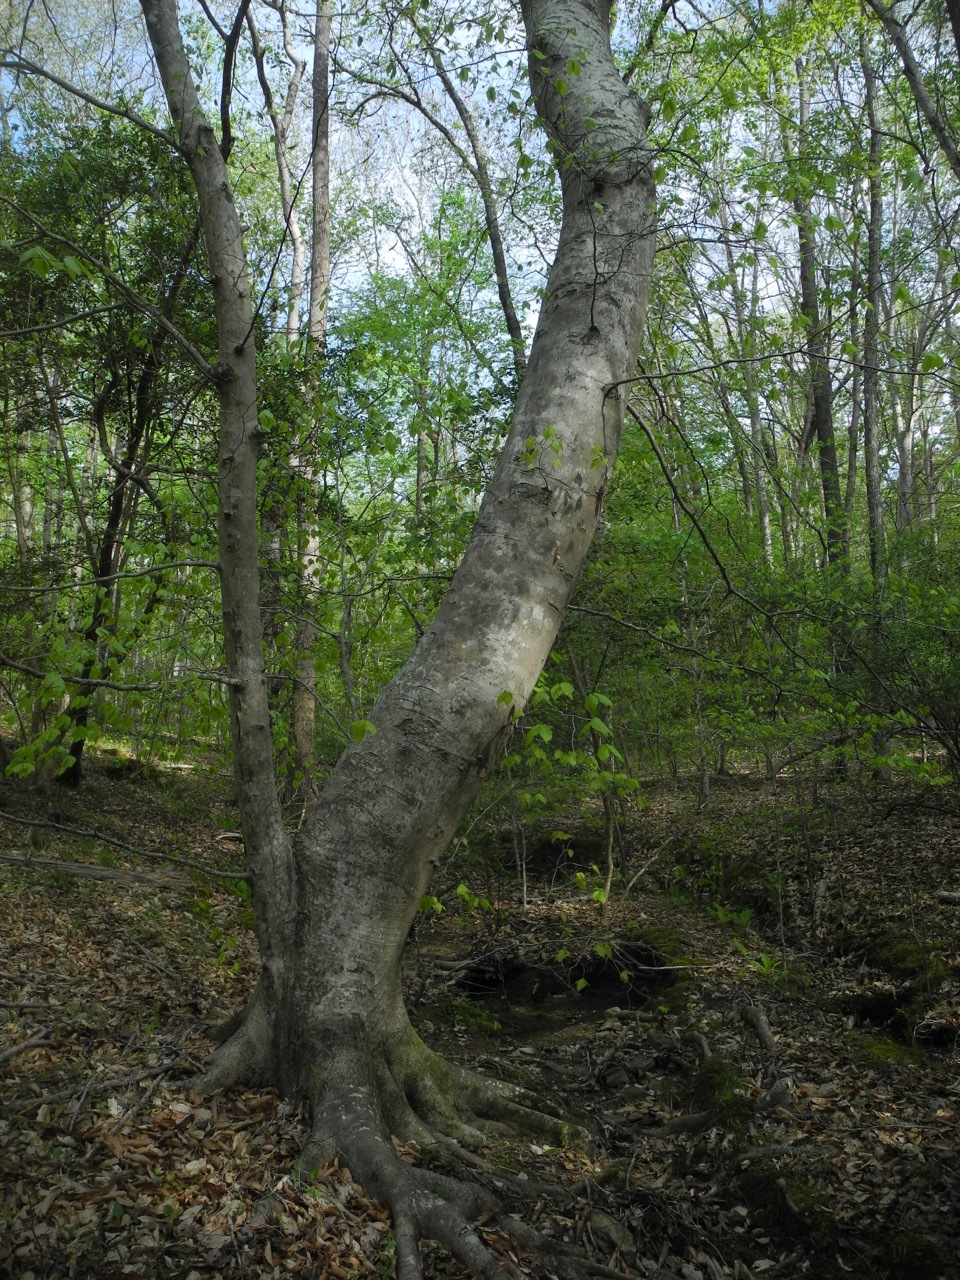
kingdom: Plantae
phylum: Tracheophyta
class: Magnoliopsida
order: Fagales
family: Fagaceae
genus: Fagus
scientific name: Fagus grandifolia
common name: American beech
